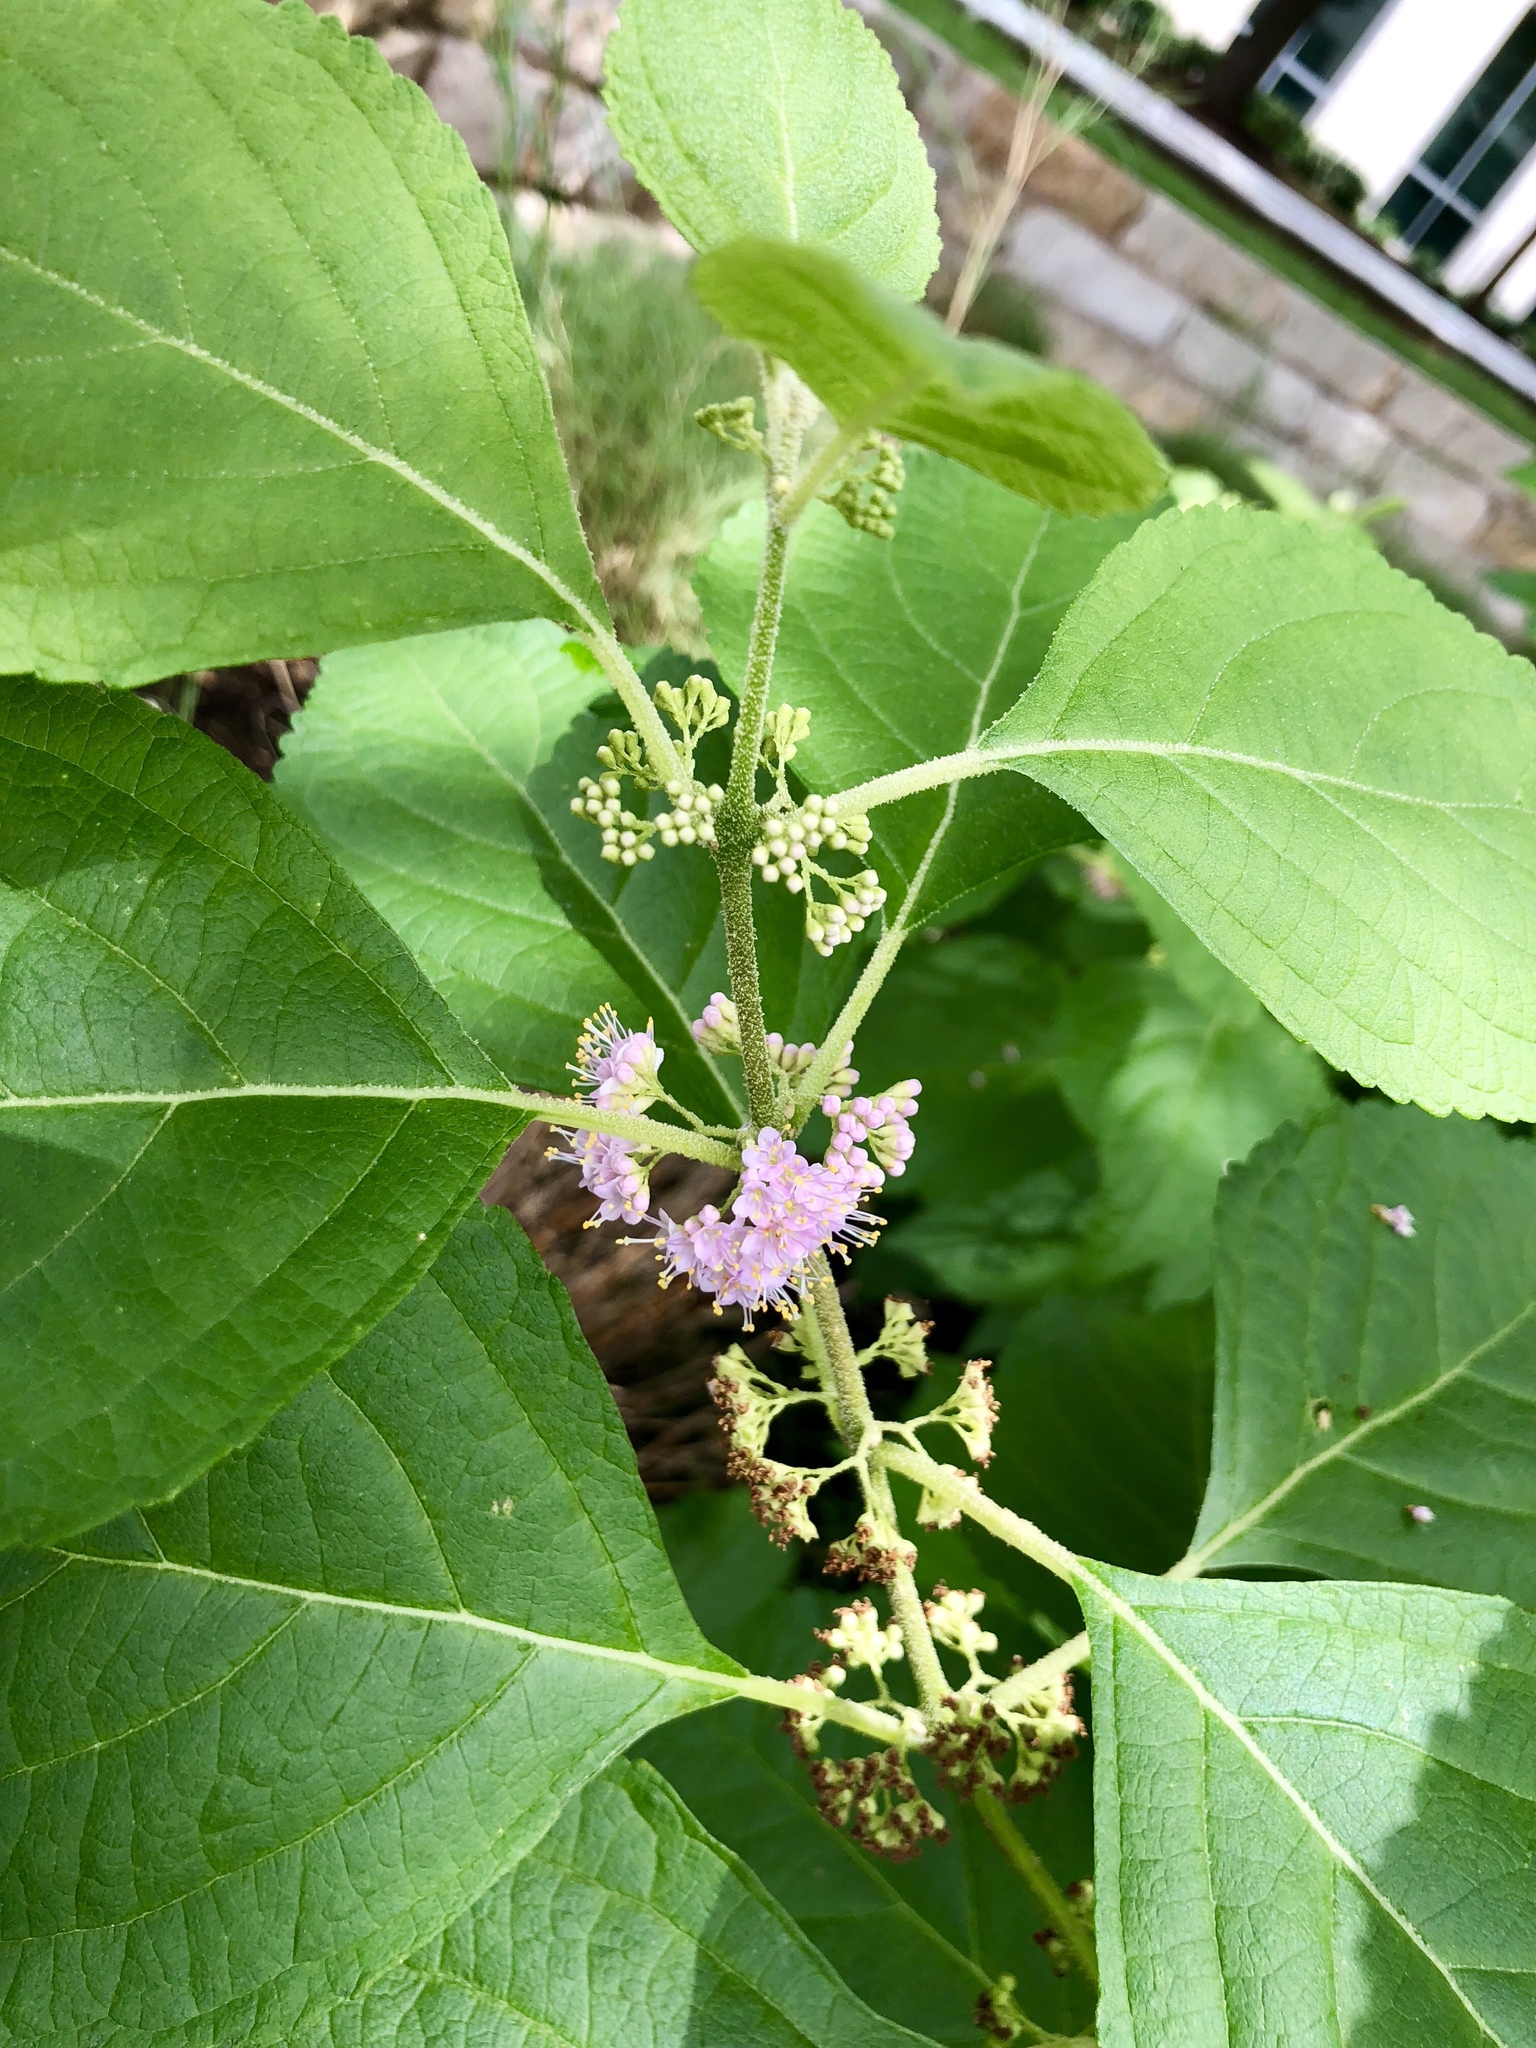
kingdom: Plantae
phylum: Tracheophyta
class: Magnoliopsida
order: Lamiales
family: Lamiaceae
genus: Callicarpa
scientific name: Callicarpa americana
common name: American beautyberry
